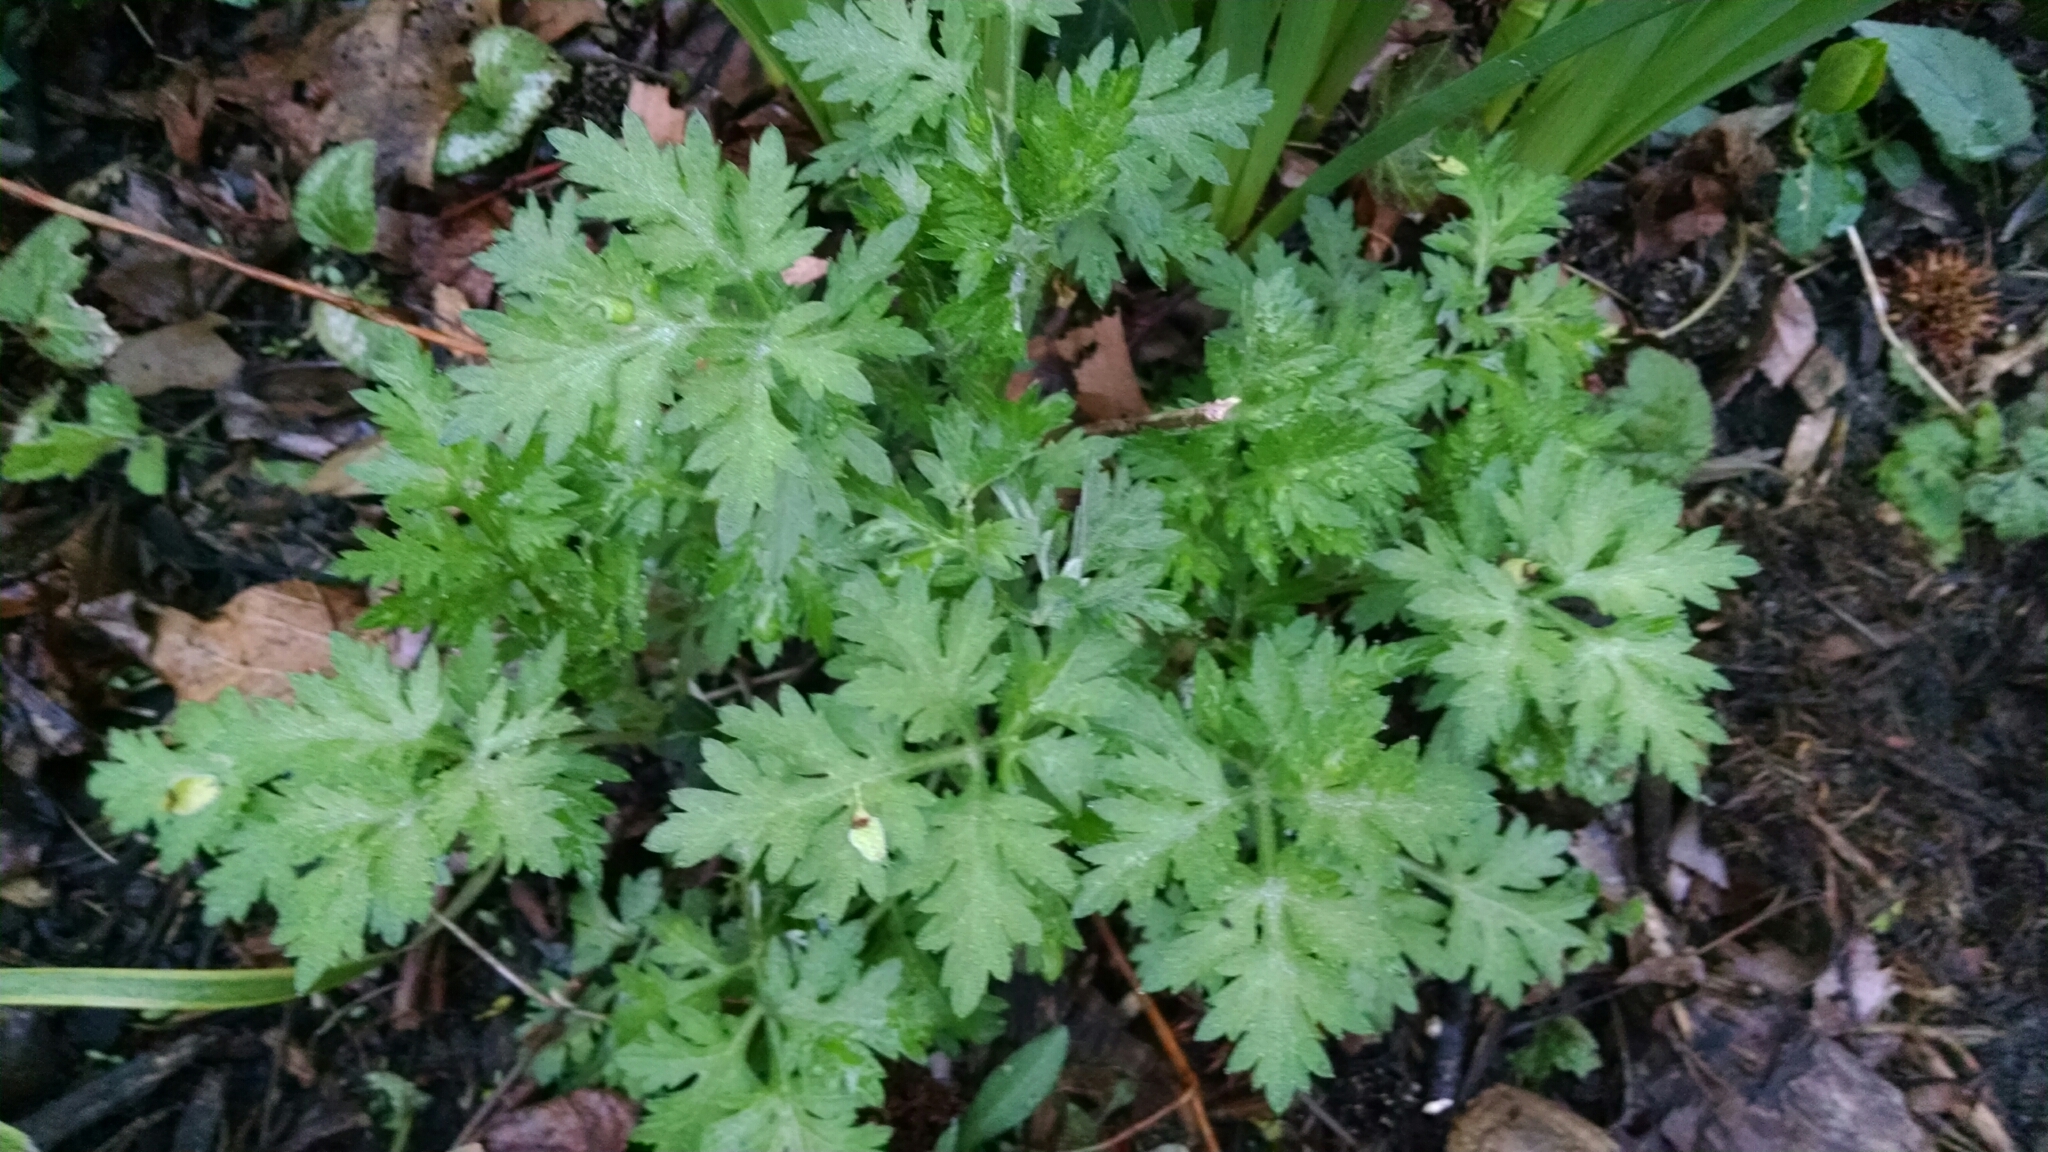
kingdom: Plantae
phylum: Tracheophyta
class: Magnoliopsida
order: Asterales
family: Asteraceae
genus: Artemisia
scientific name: Artemisia vulgaris
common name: Mugwort
